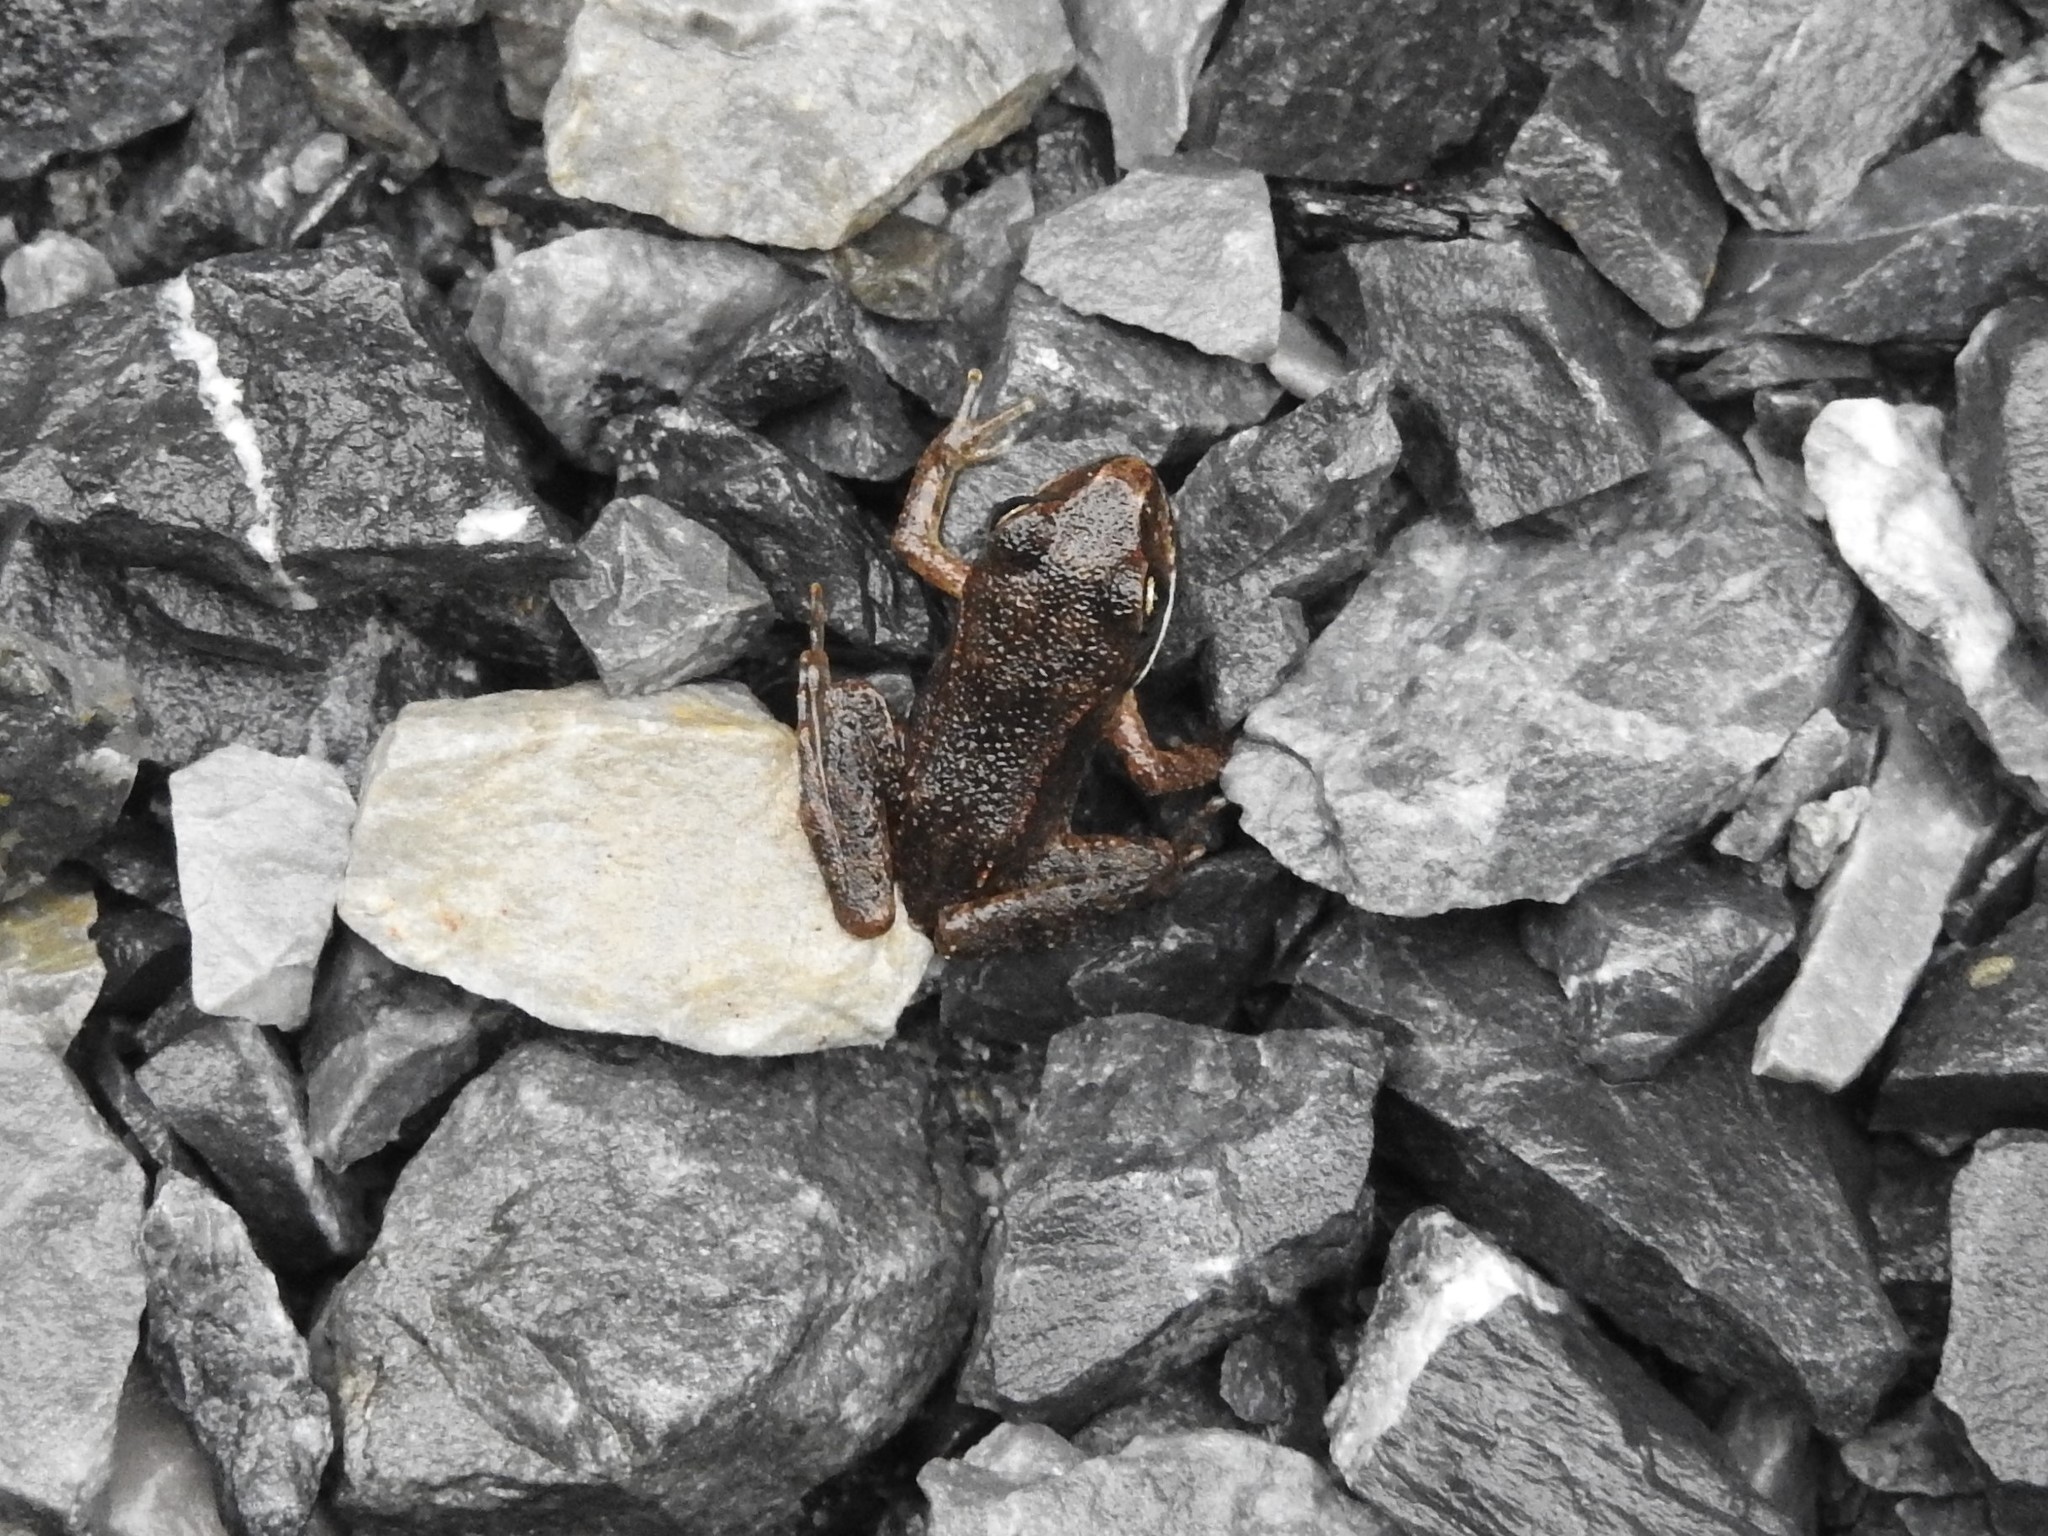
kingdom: Animalia
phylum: Chordata
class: Amphibia
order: Anura
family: Ranidae
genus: Lithobates
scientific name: Lithobates sylvaticus
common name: Wood frog
